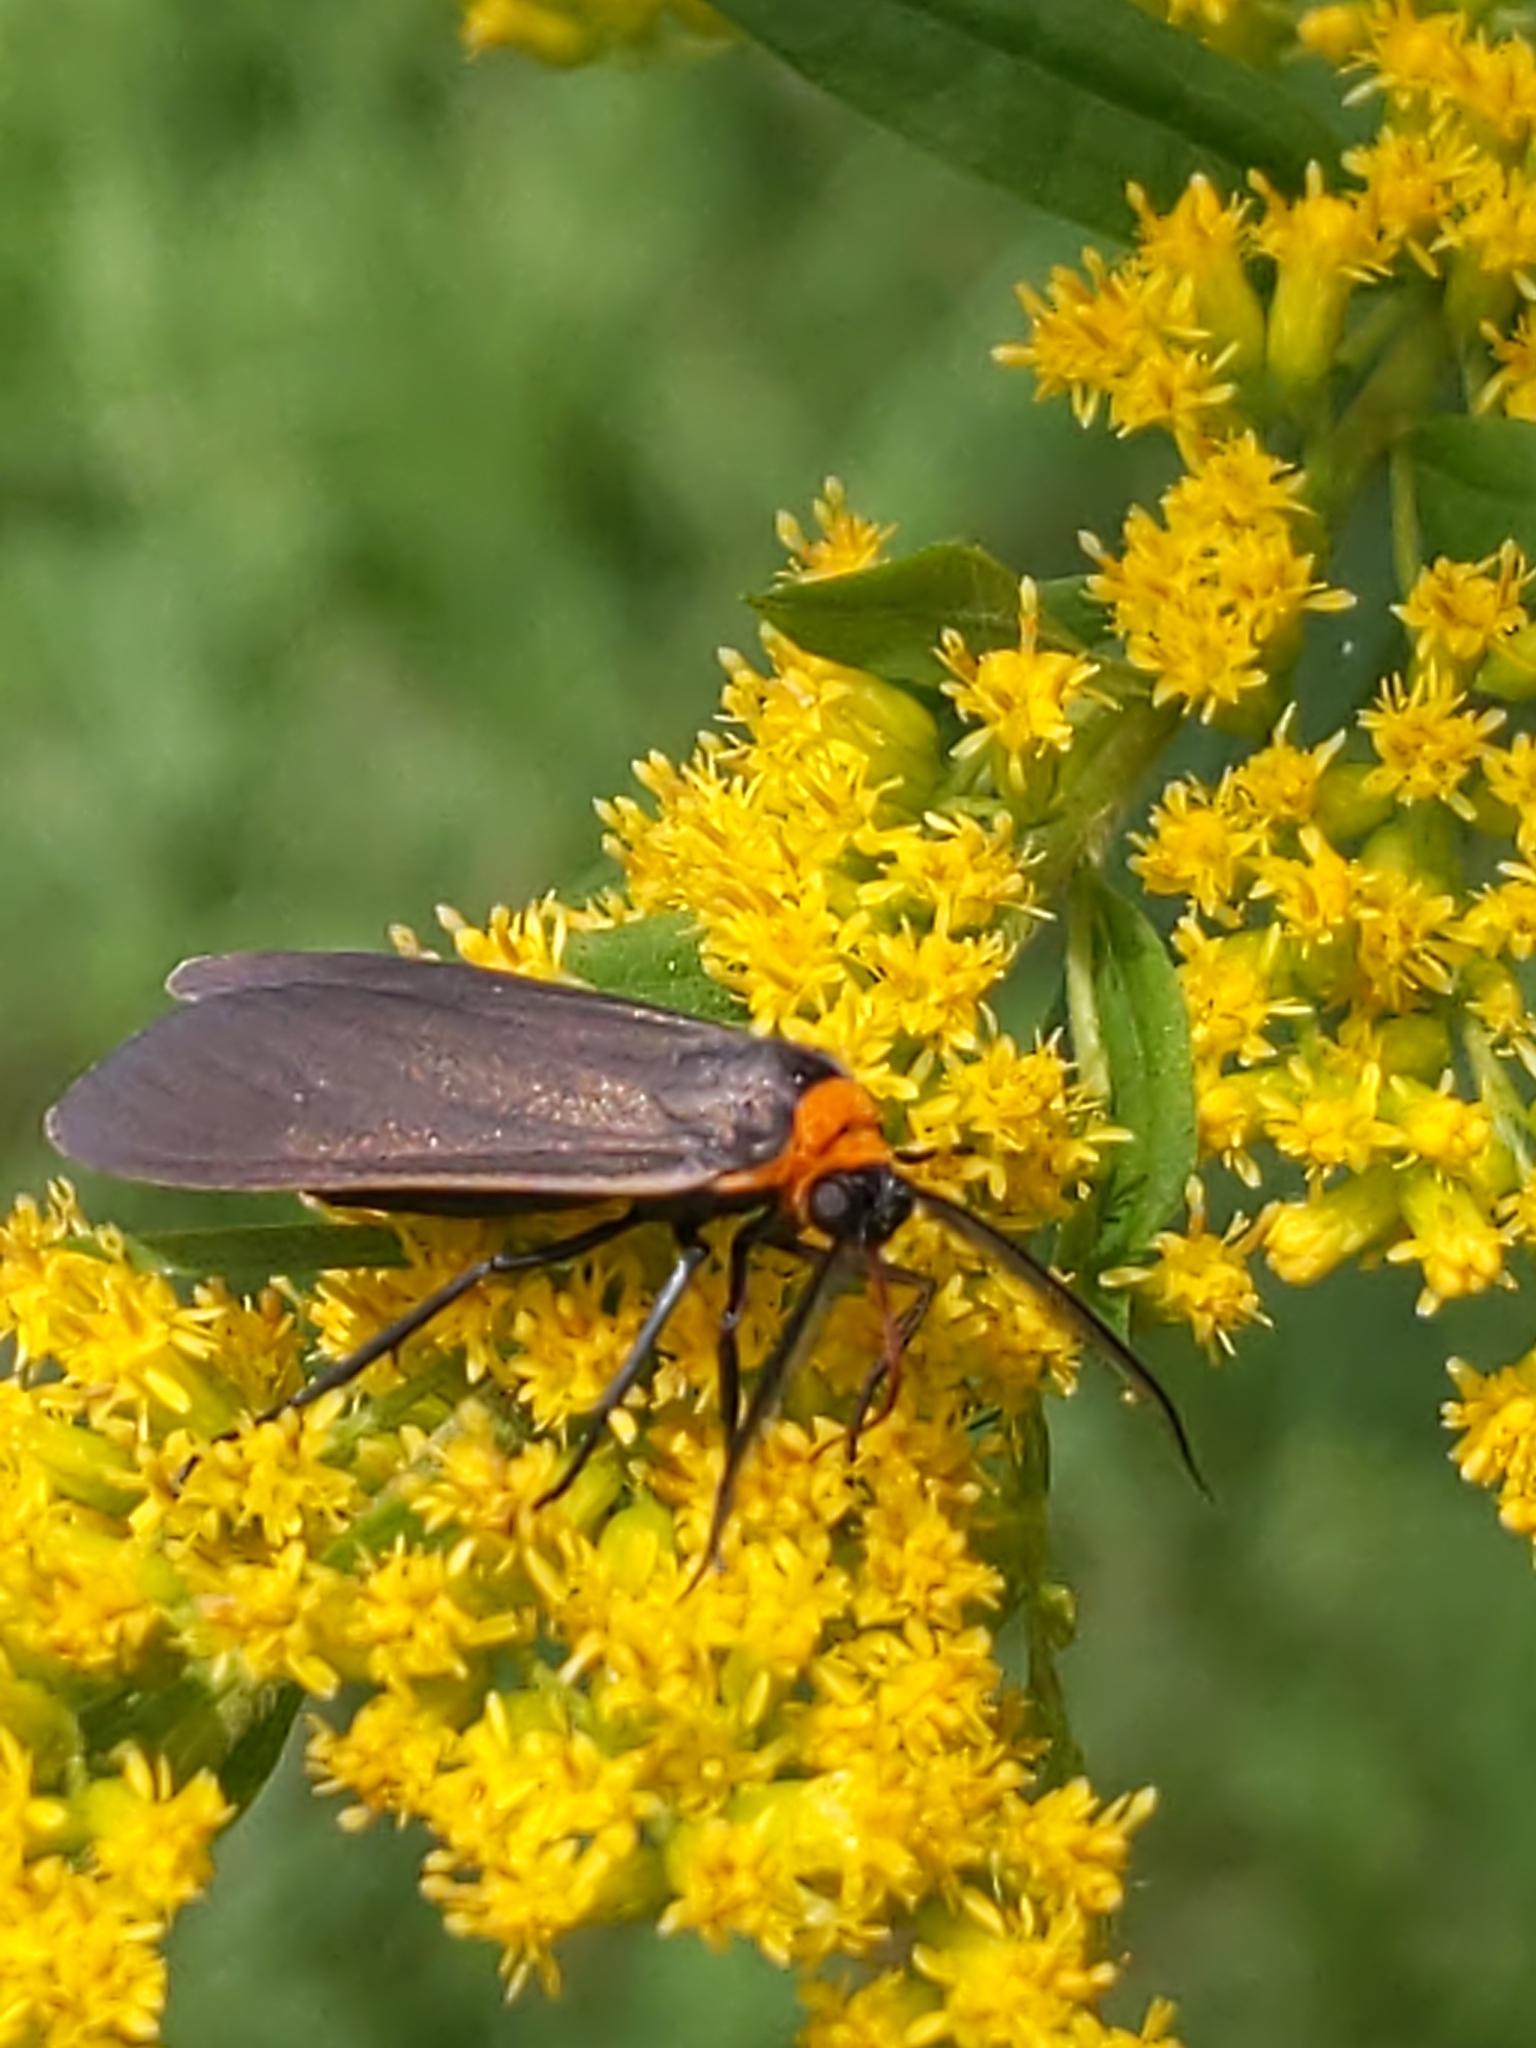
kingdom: Animalia
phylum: Arthropoda
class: Insecta
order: Lepidoptera
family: Erebidae
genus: Cisseps
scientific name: Cisseps fulvicollis
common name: Yellow-collared scape moth
